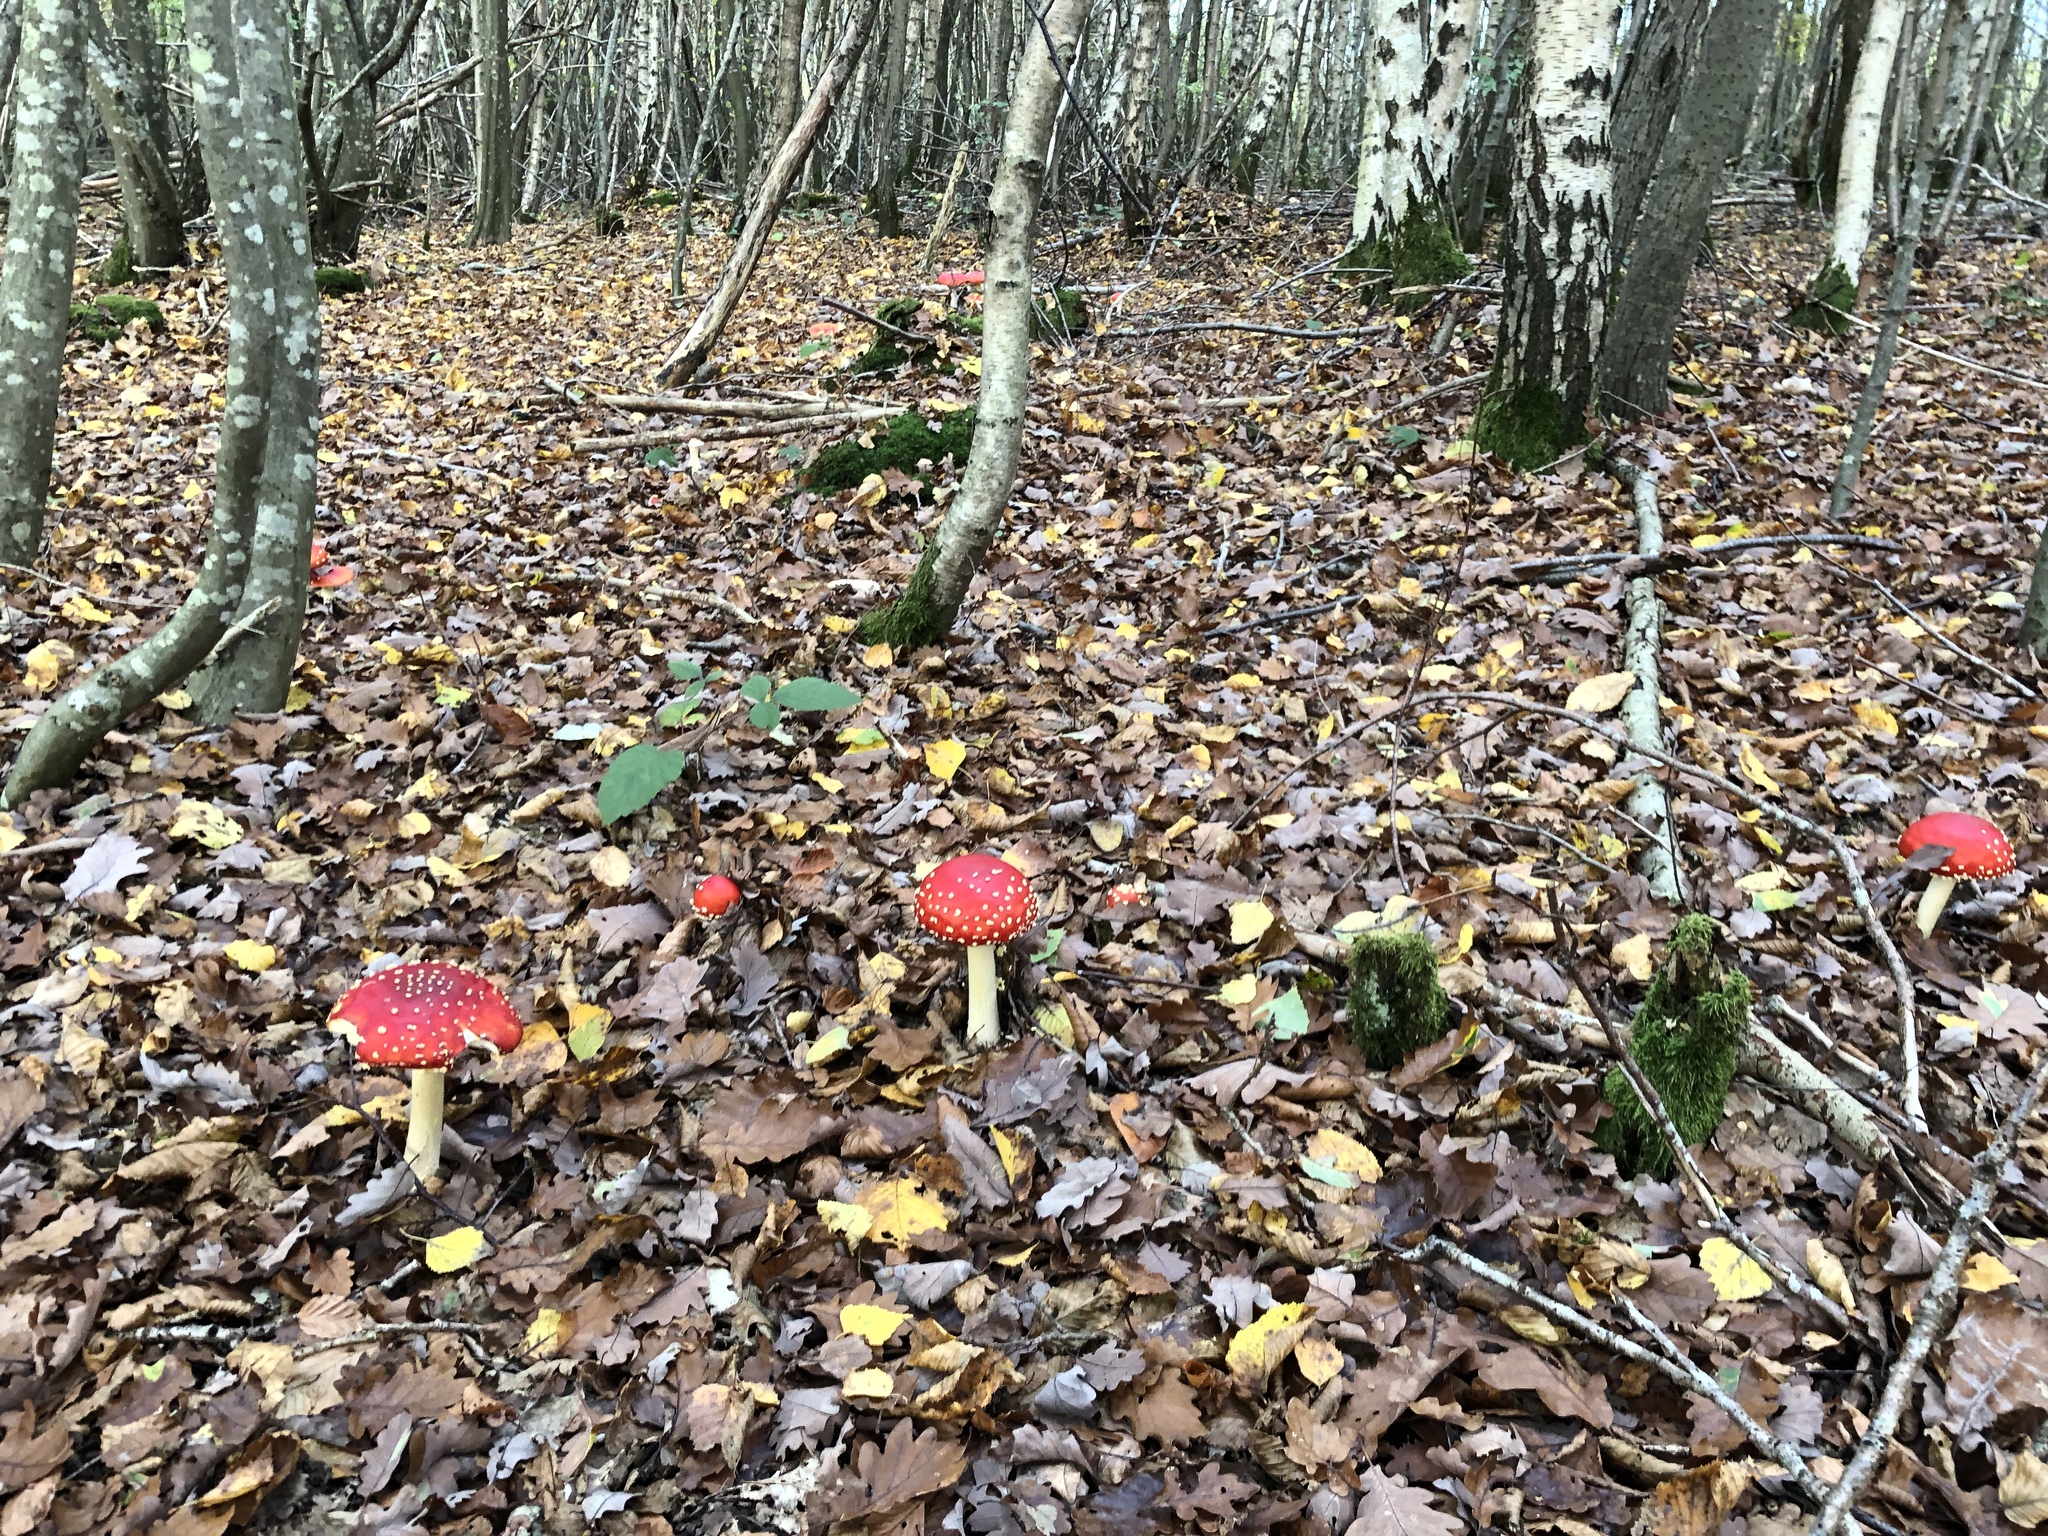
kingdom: Fungi
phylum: Basidiomycota
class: Agaricomycetes
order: Agaricales
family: Amanitaceae
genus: Amanita
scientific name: Amanita muscaria
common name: Fly agaric
